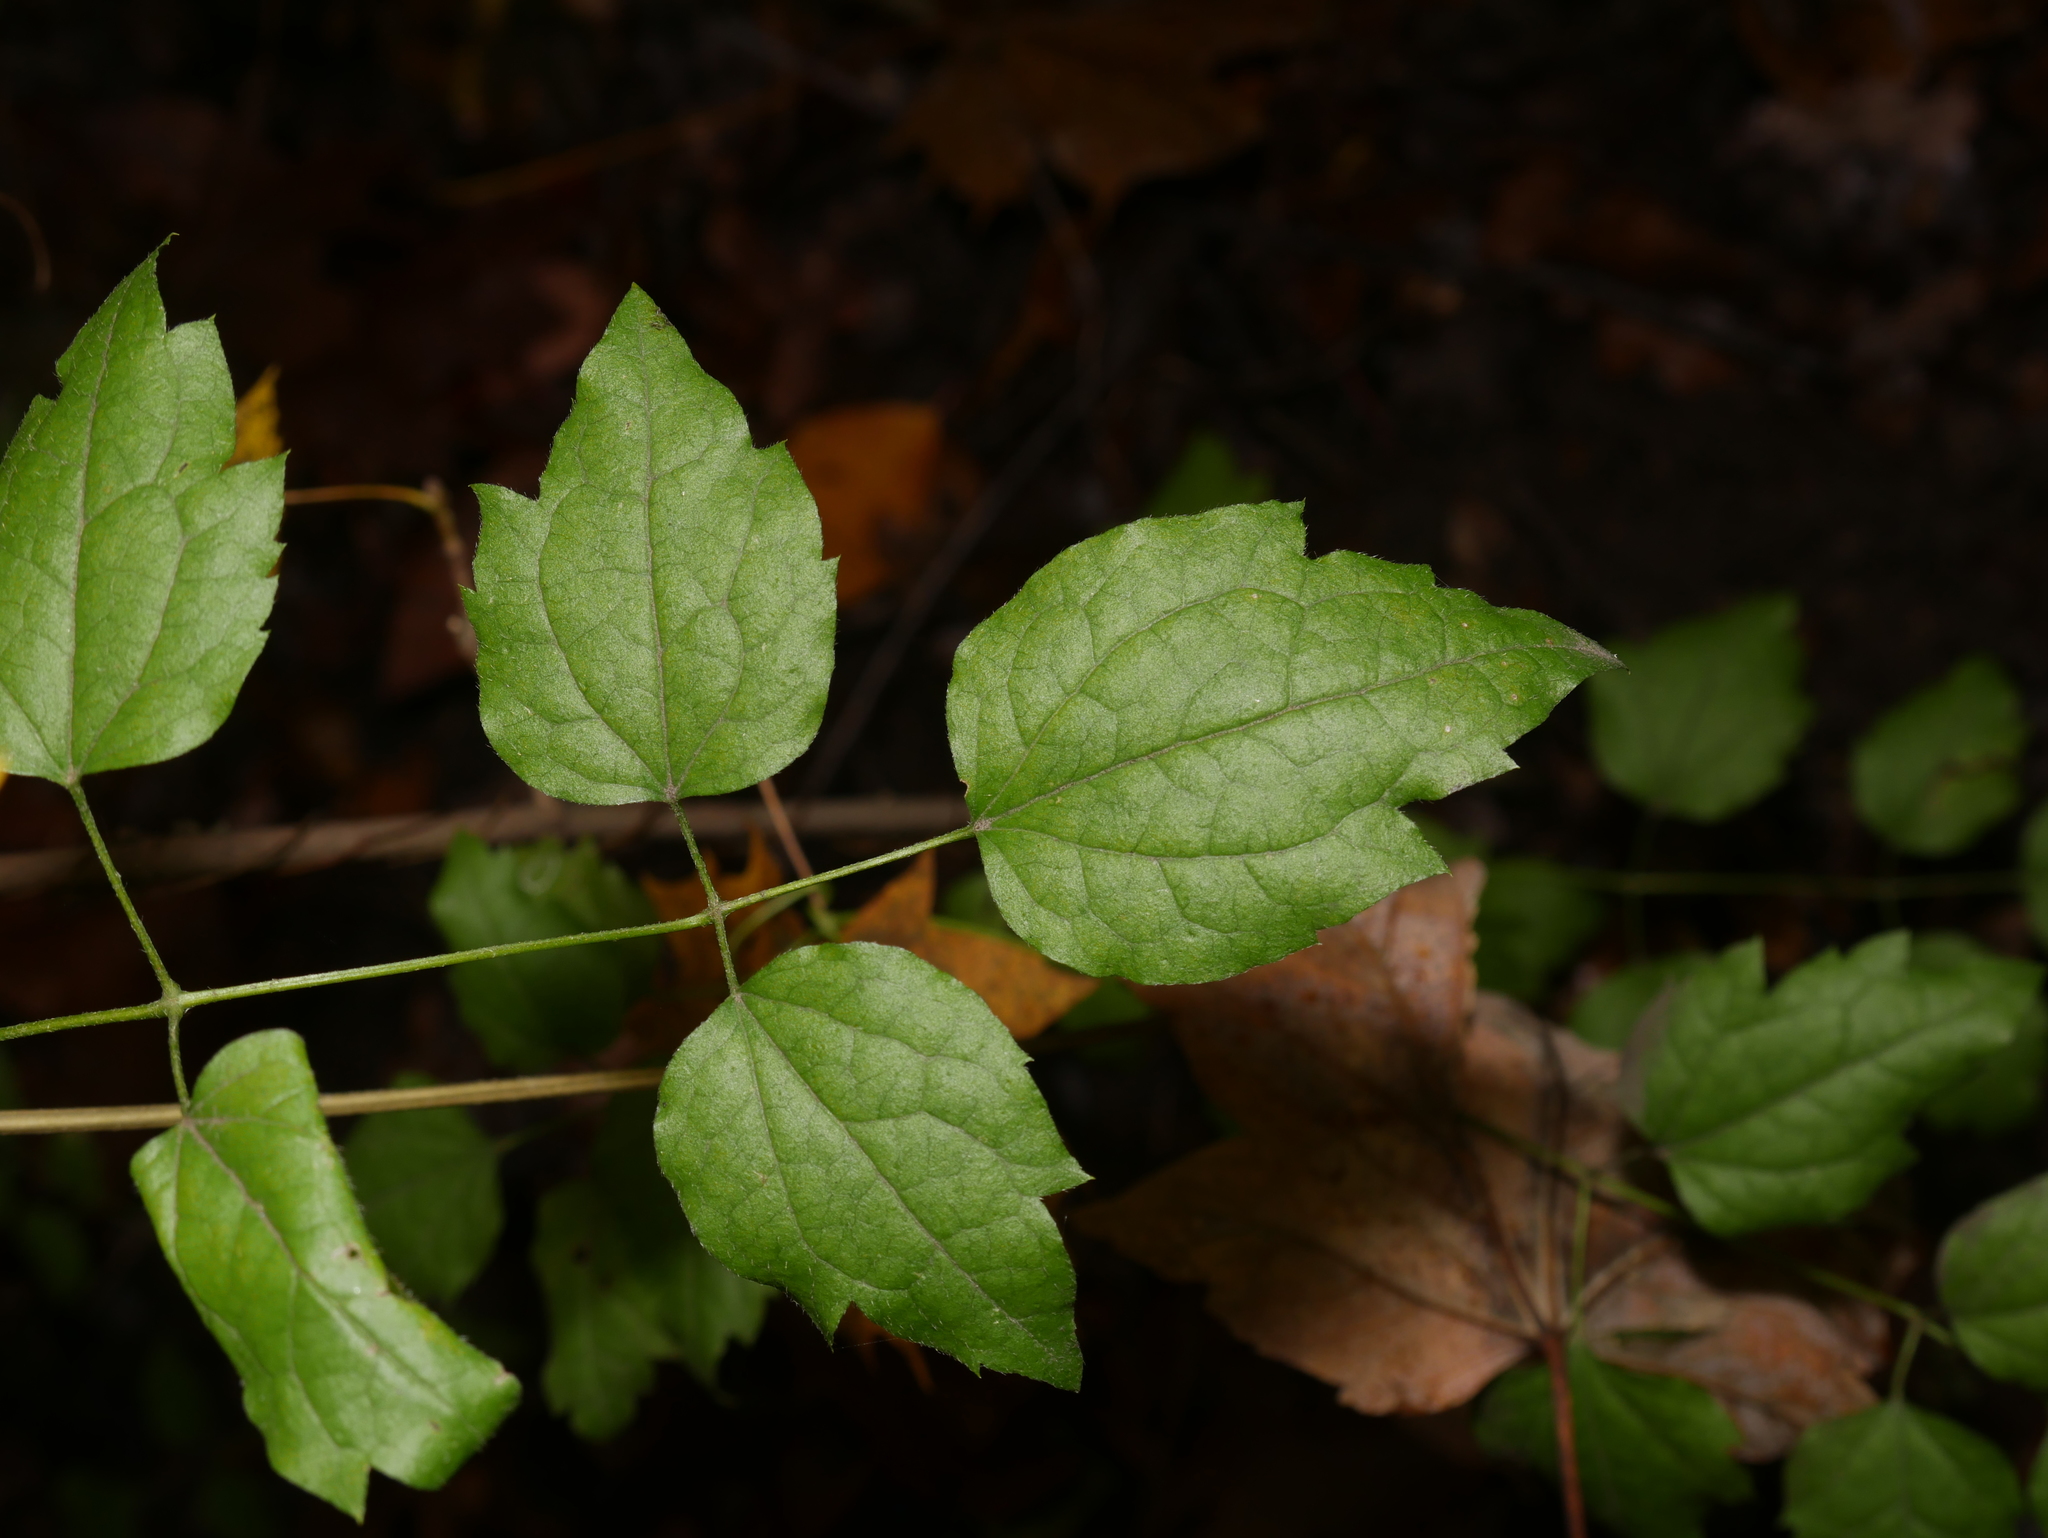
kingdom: Plantae
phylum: Tracheophyta
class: Magnoliopsida
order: Ranunculales
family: Ranunculaceae
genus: Clematis
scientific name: Clematis vitalba
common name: Evergreen clematis
